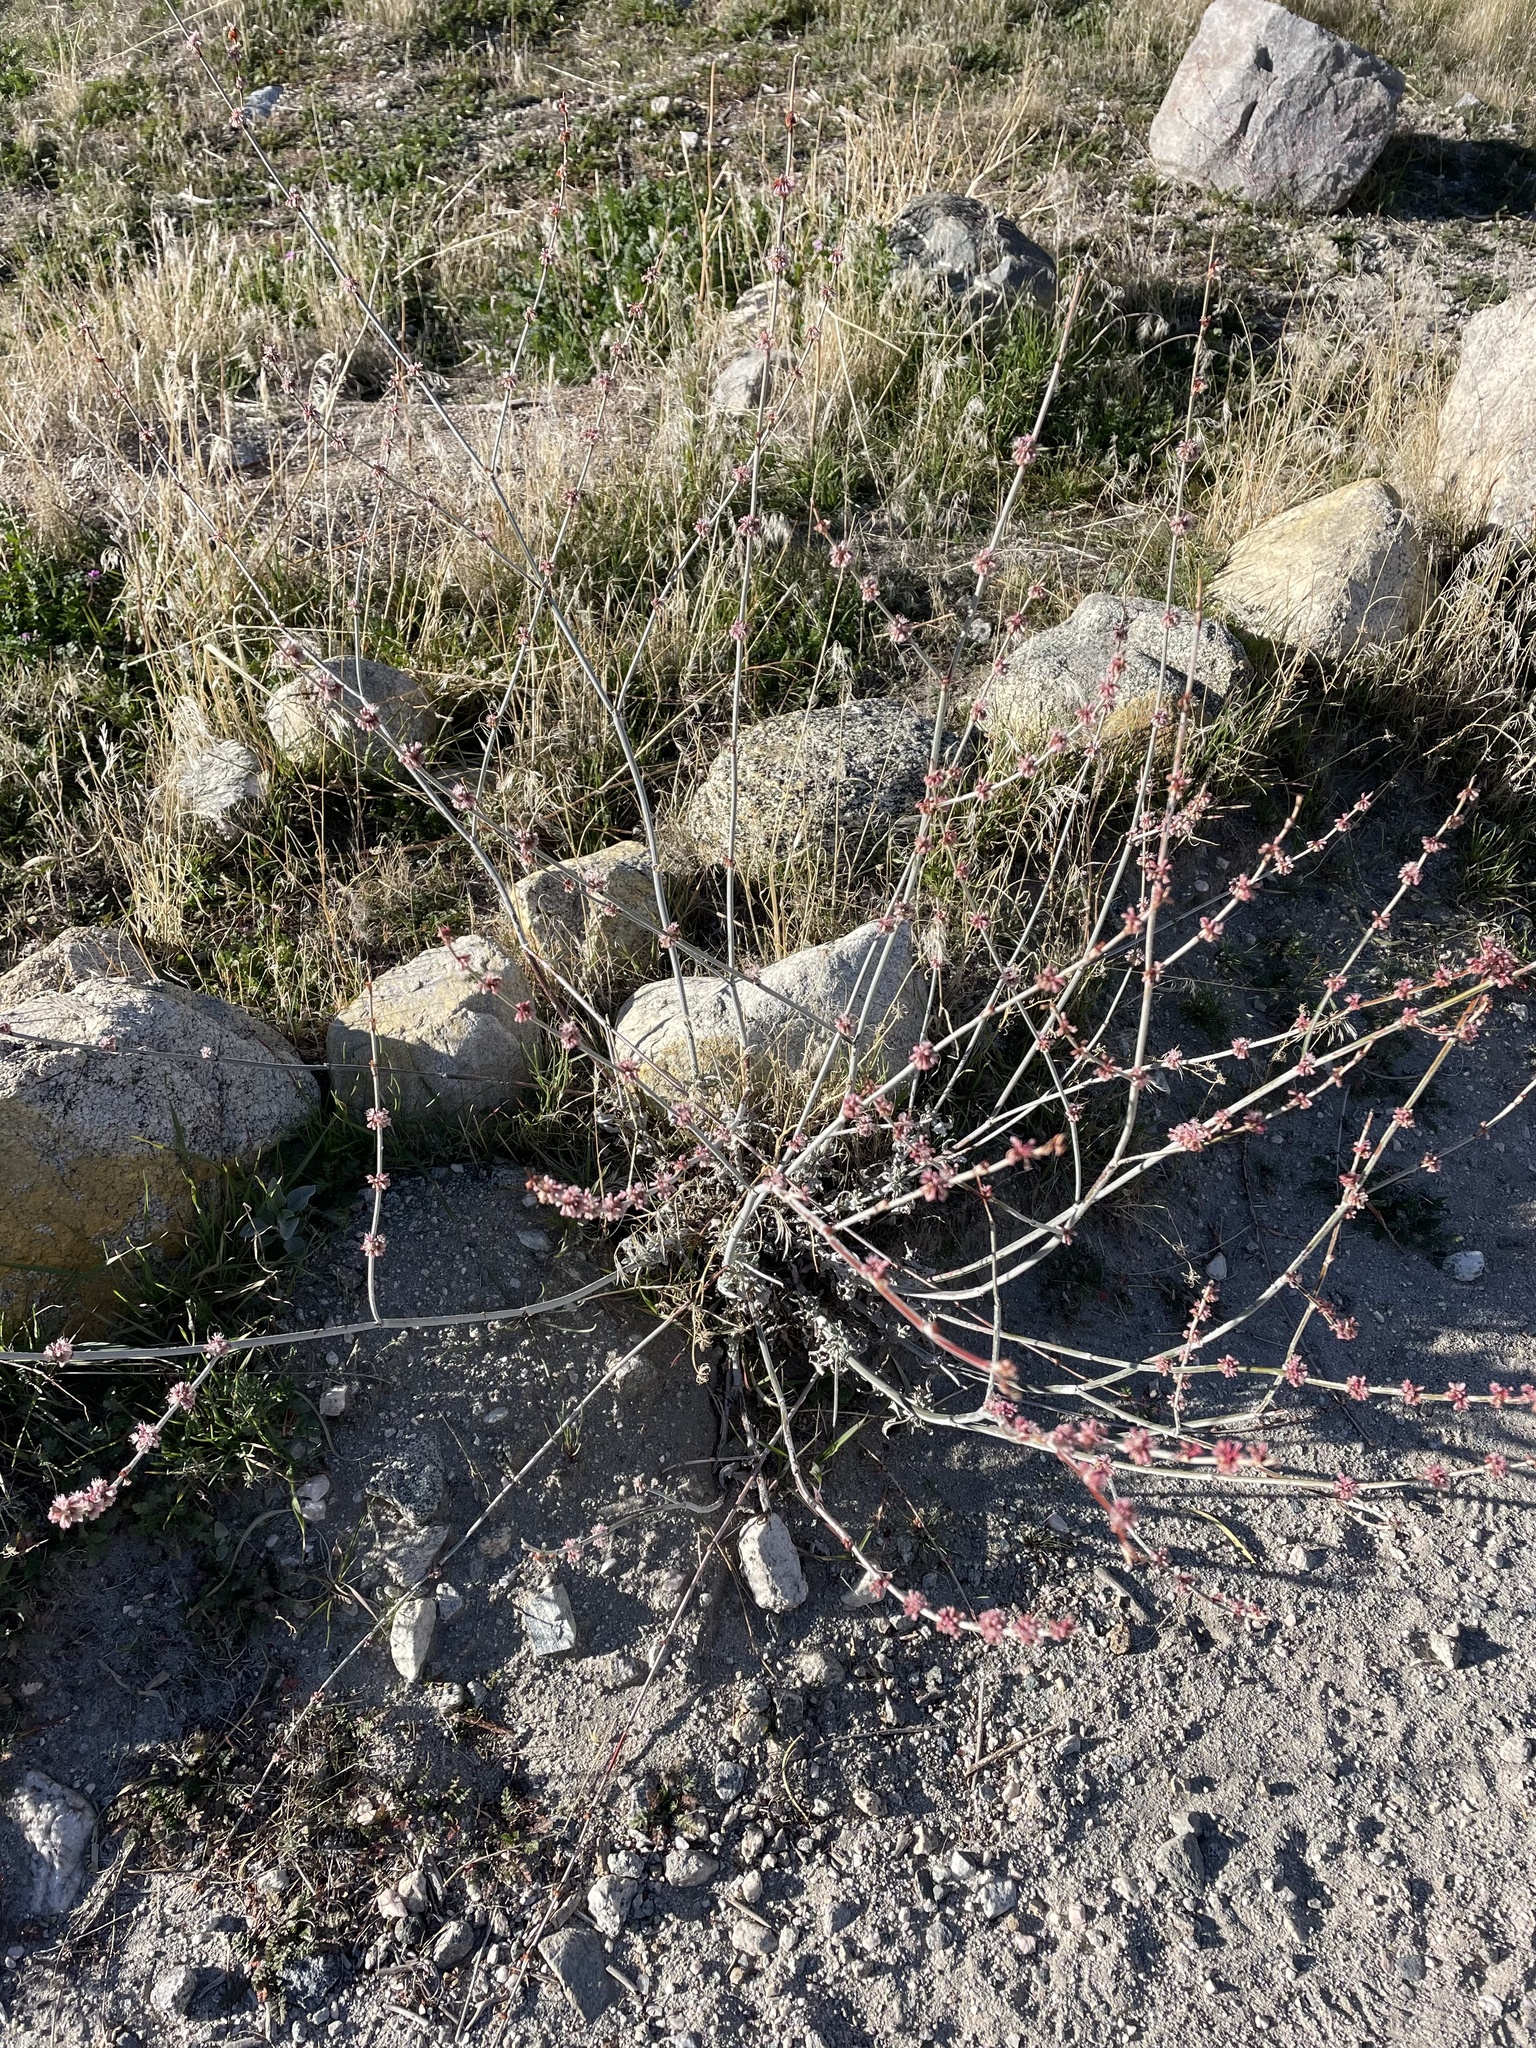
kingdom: Plantae
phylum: Tracheophyta
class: Magnoliopsida
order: Caryophyllales
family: Polygonaceae
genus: Eriogonum
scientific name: Eriogonum elongatum
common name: Long-stem wild buckwheat
